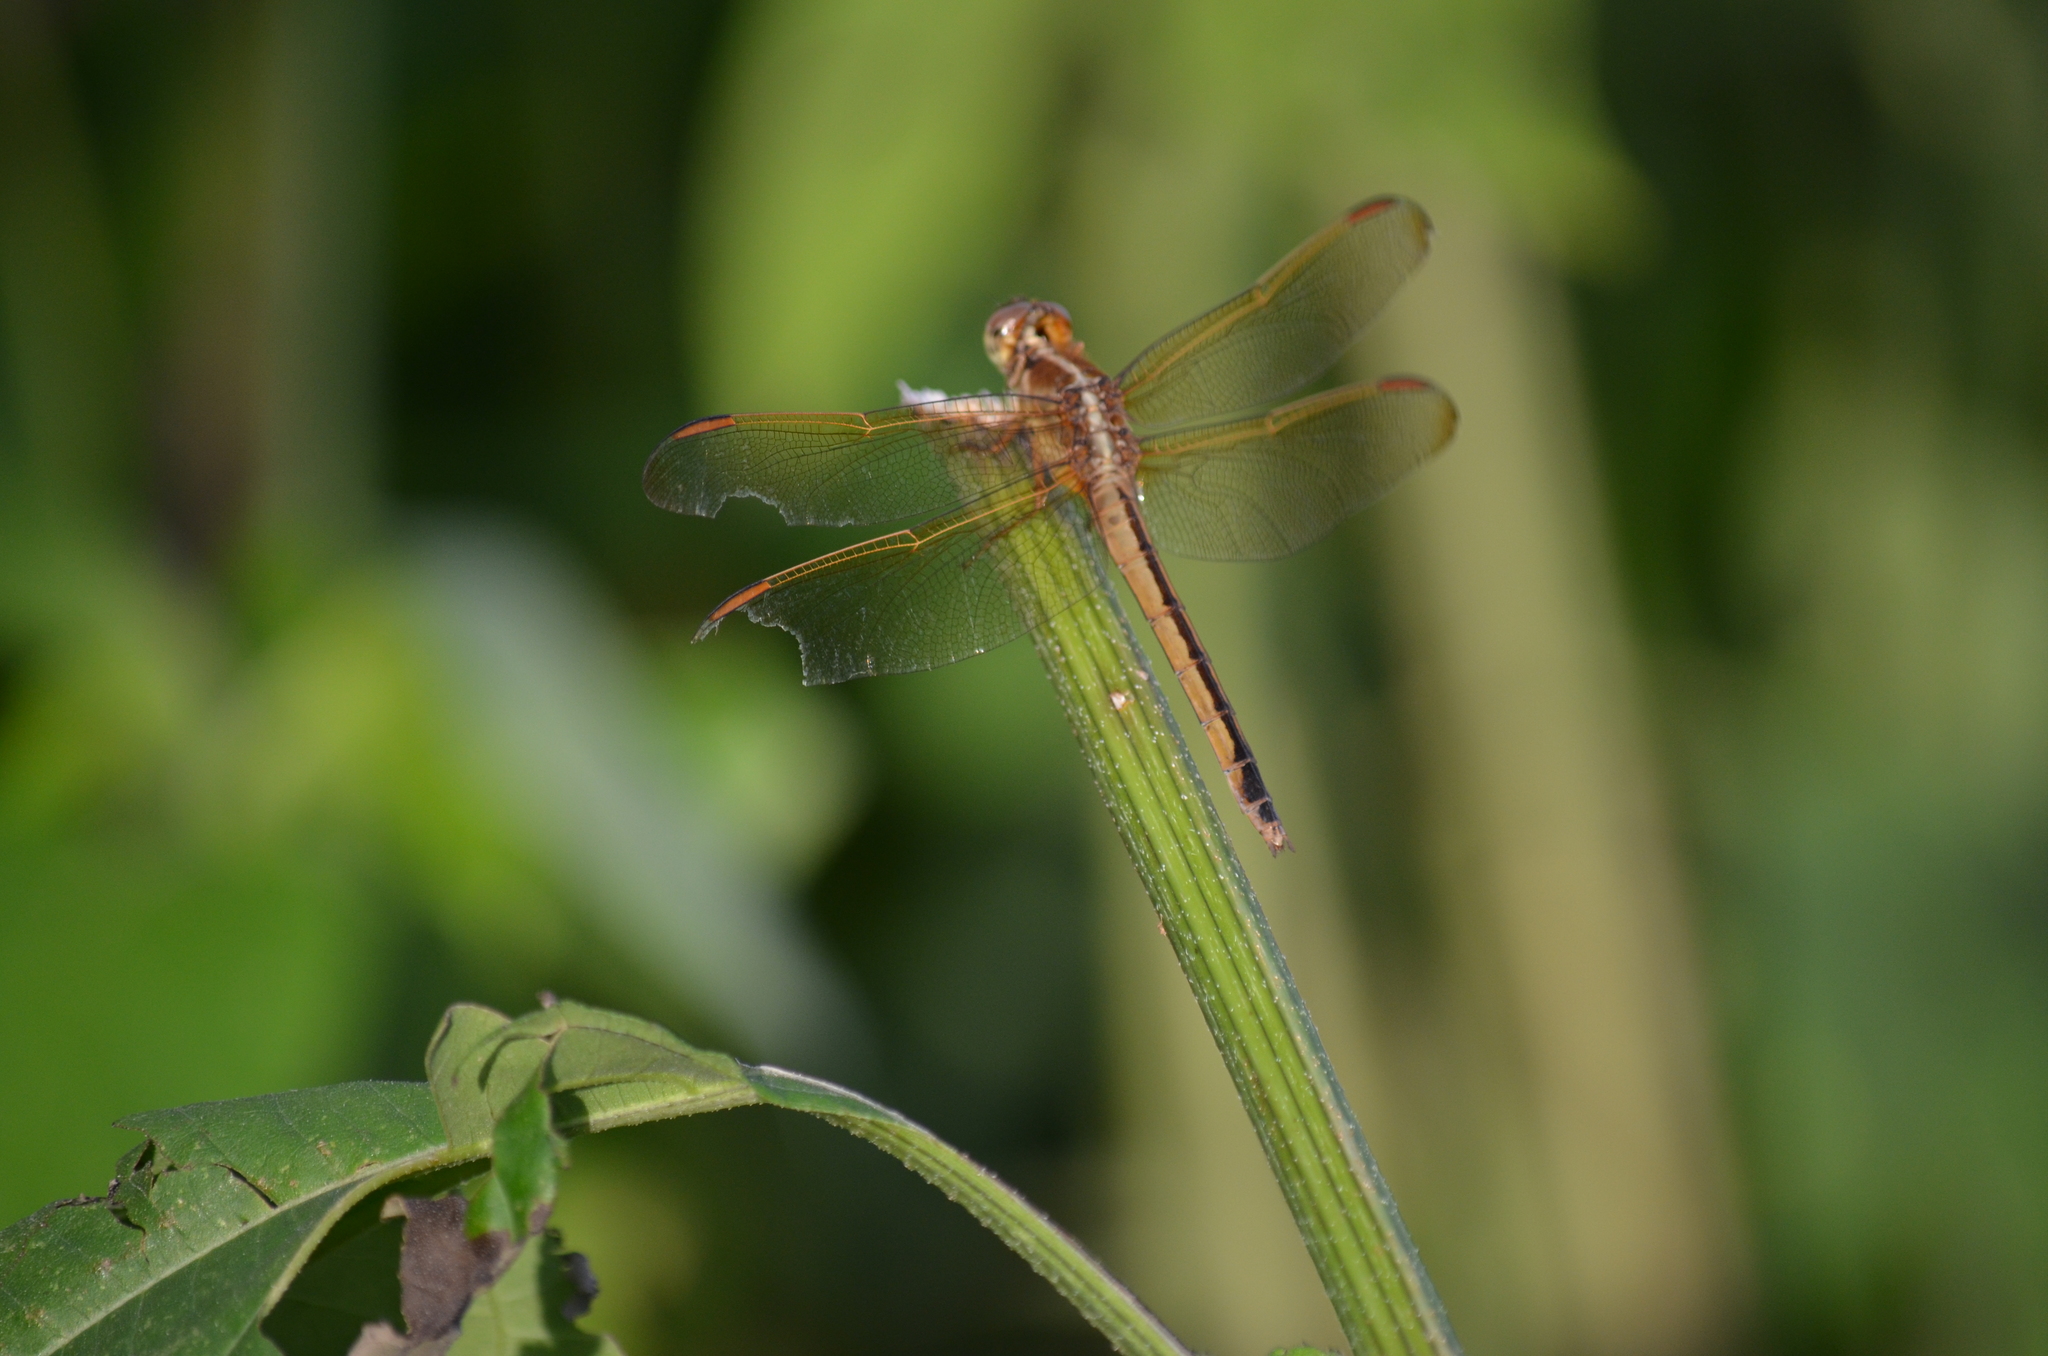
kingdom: Animalia
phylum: Arthropoda
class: Insecta
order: Odonata
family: Libellulidae
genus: Libellula
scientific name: Libellula needhami
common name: Needham's skimmer
